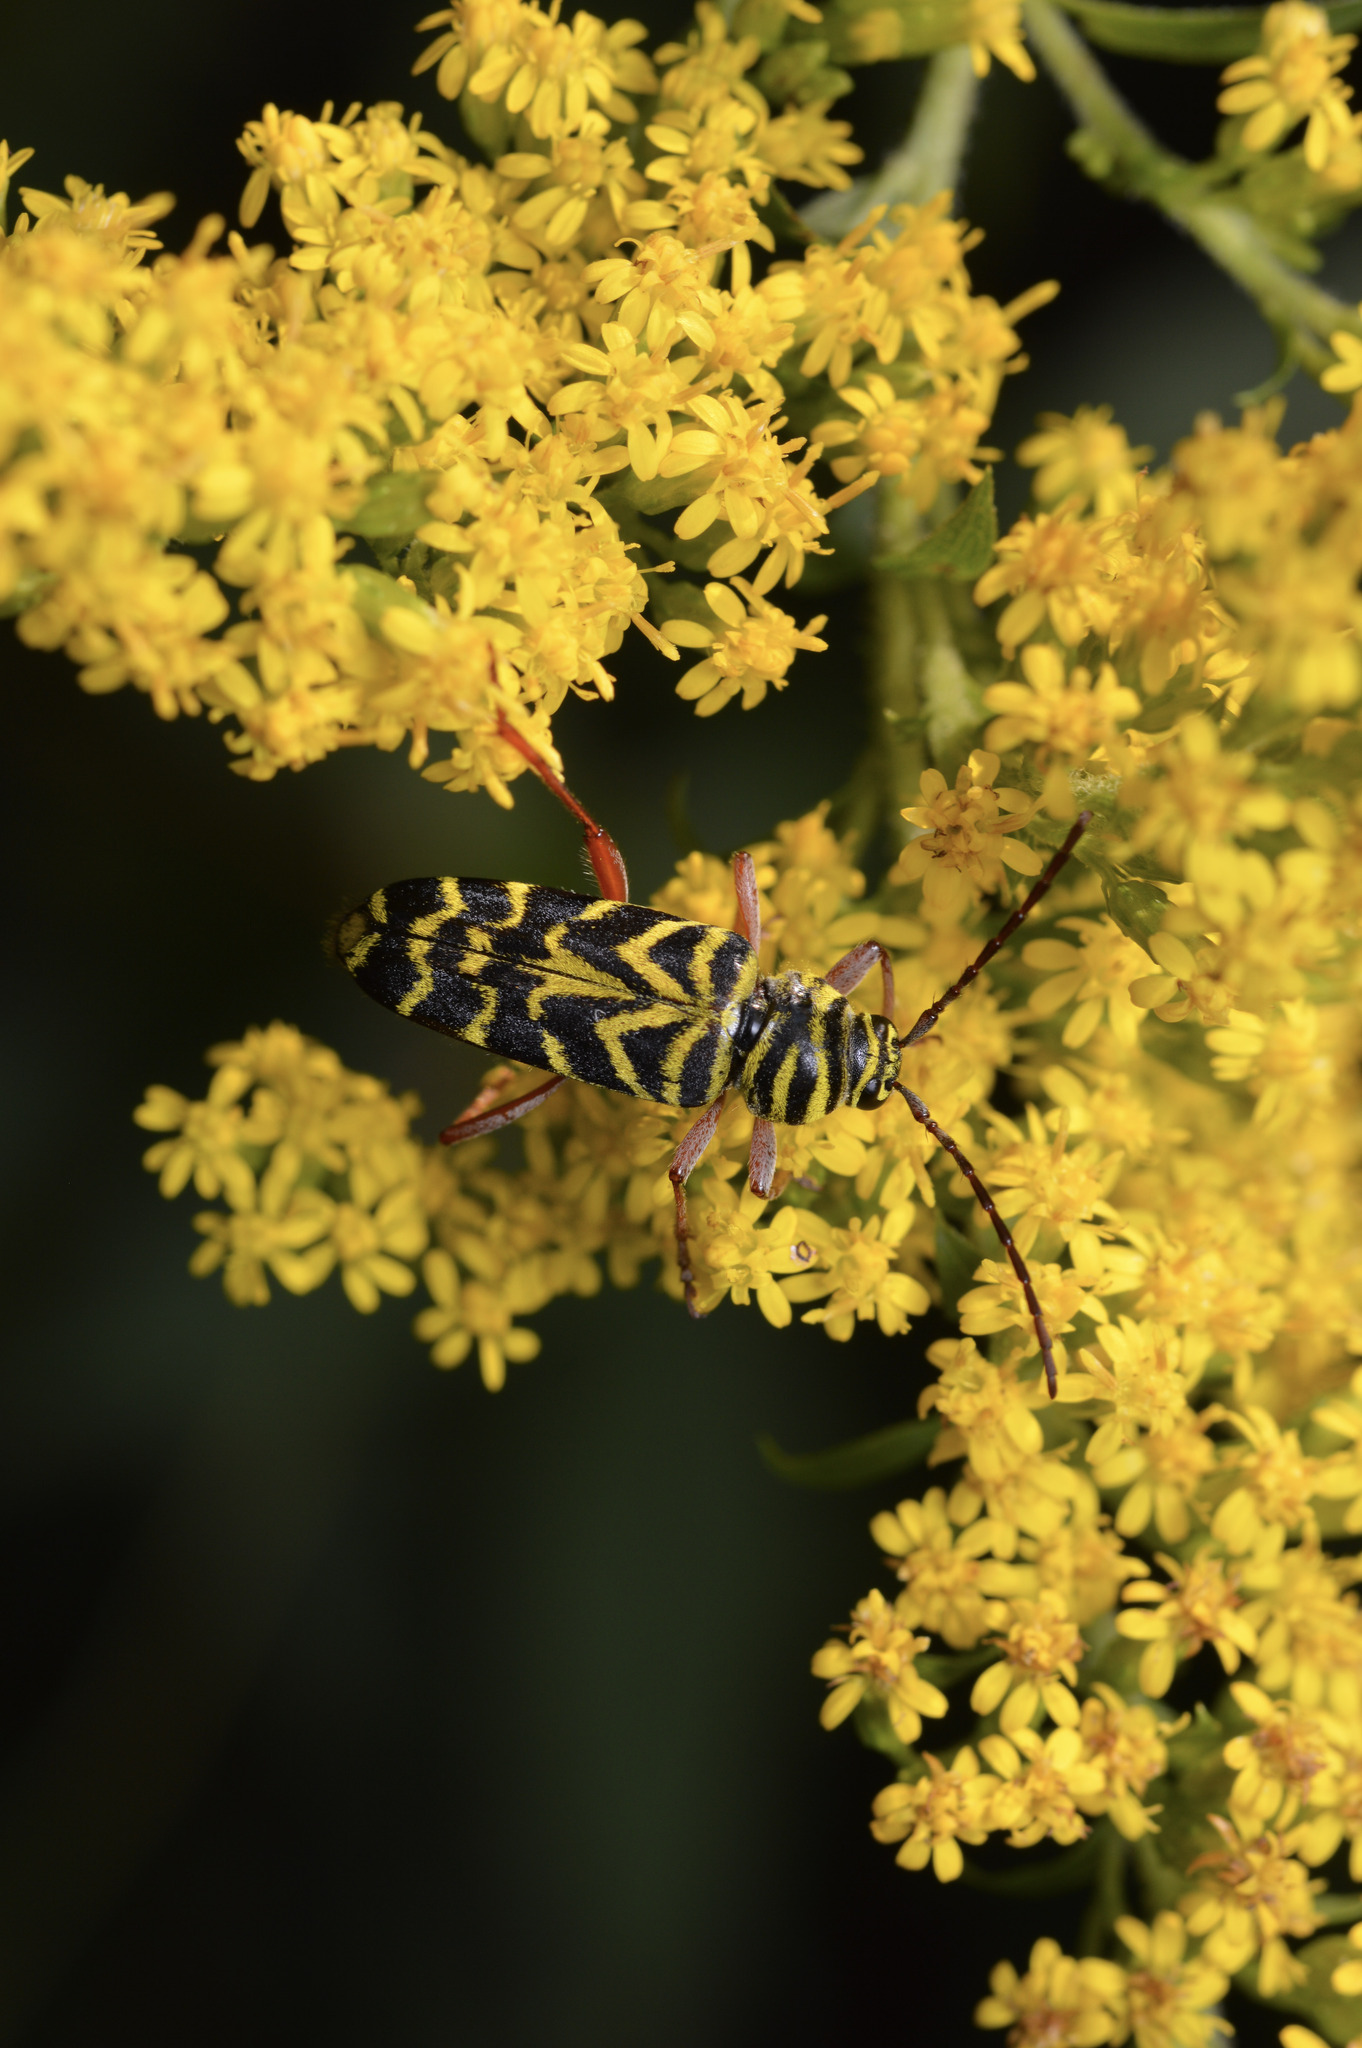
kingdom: Animalia
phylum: Arthropoda
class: Insecta
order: Coleoptera
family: Cerambycidae
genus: Megacyllene
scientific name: Megacyllene robiniae
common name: Locust borer
